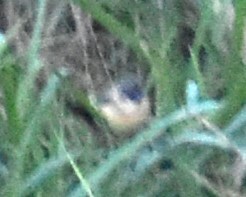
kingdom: Animalia
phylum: Chordata
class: Aves
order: Passeriformes
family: Thraupidae
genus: Sporophila
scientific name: Sporophila morelleti
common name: Morelet's seedeater
